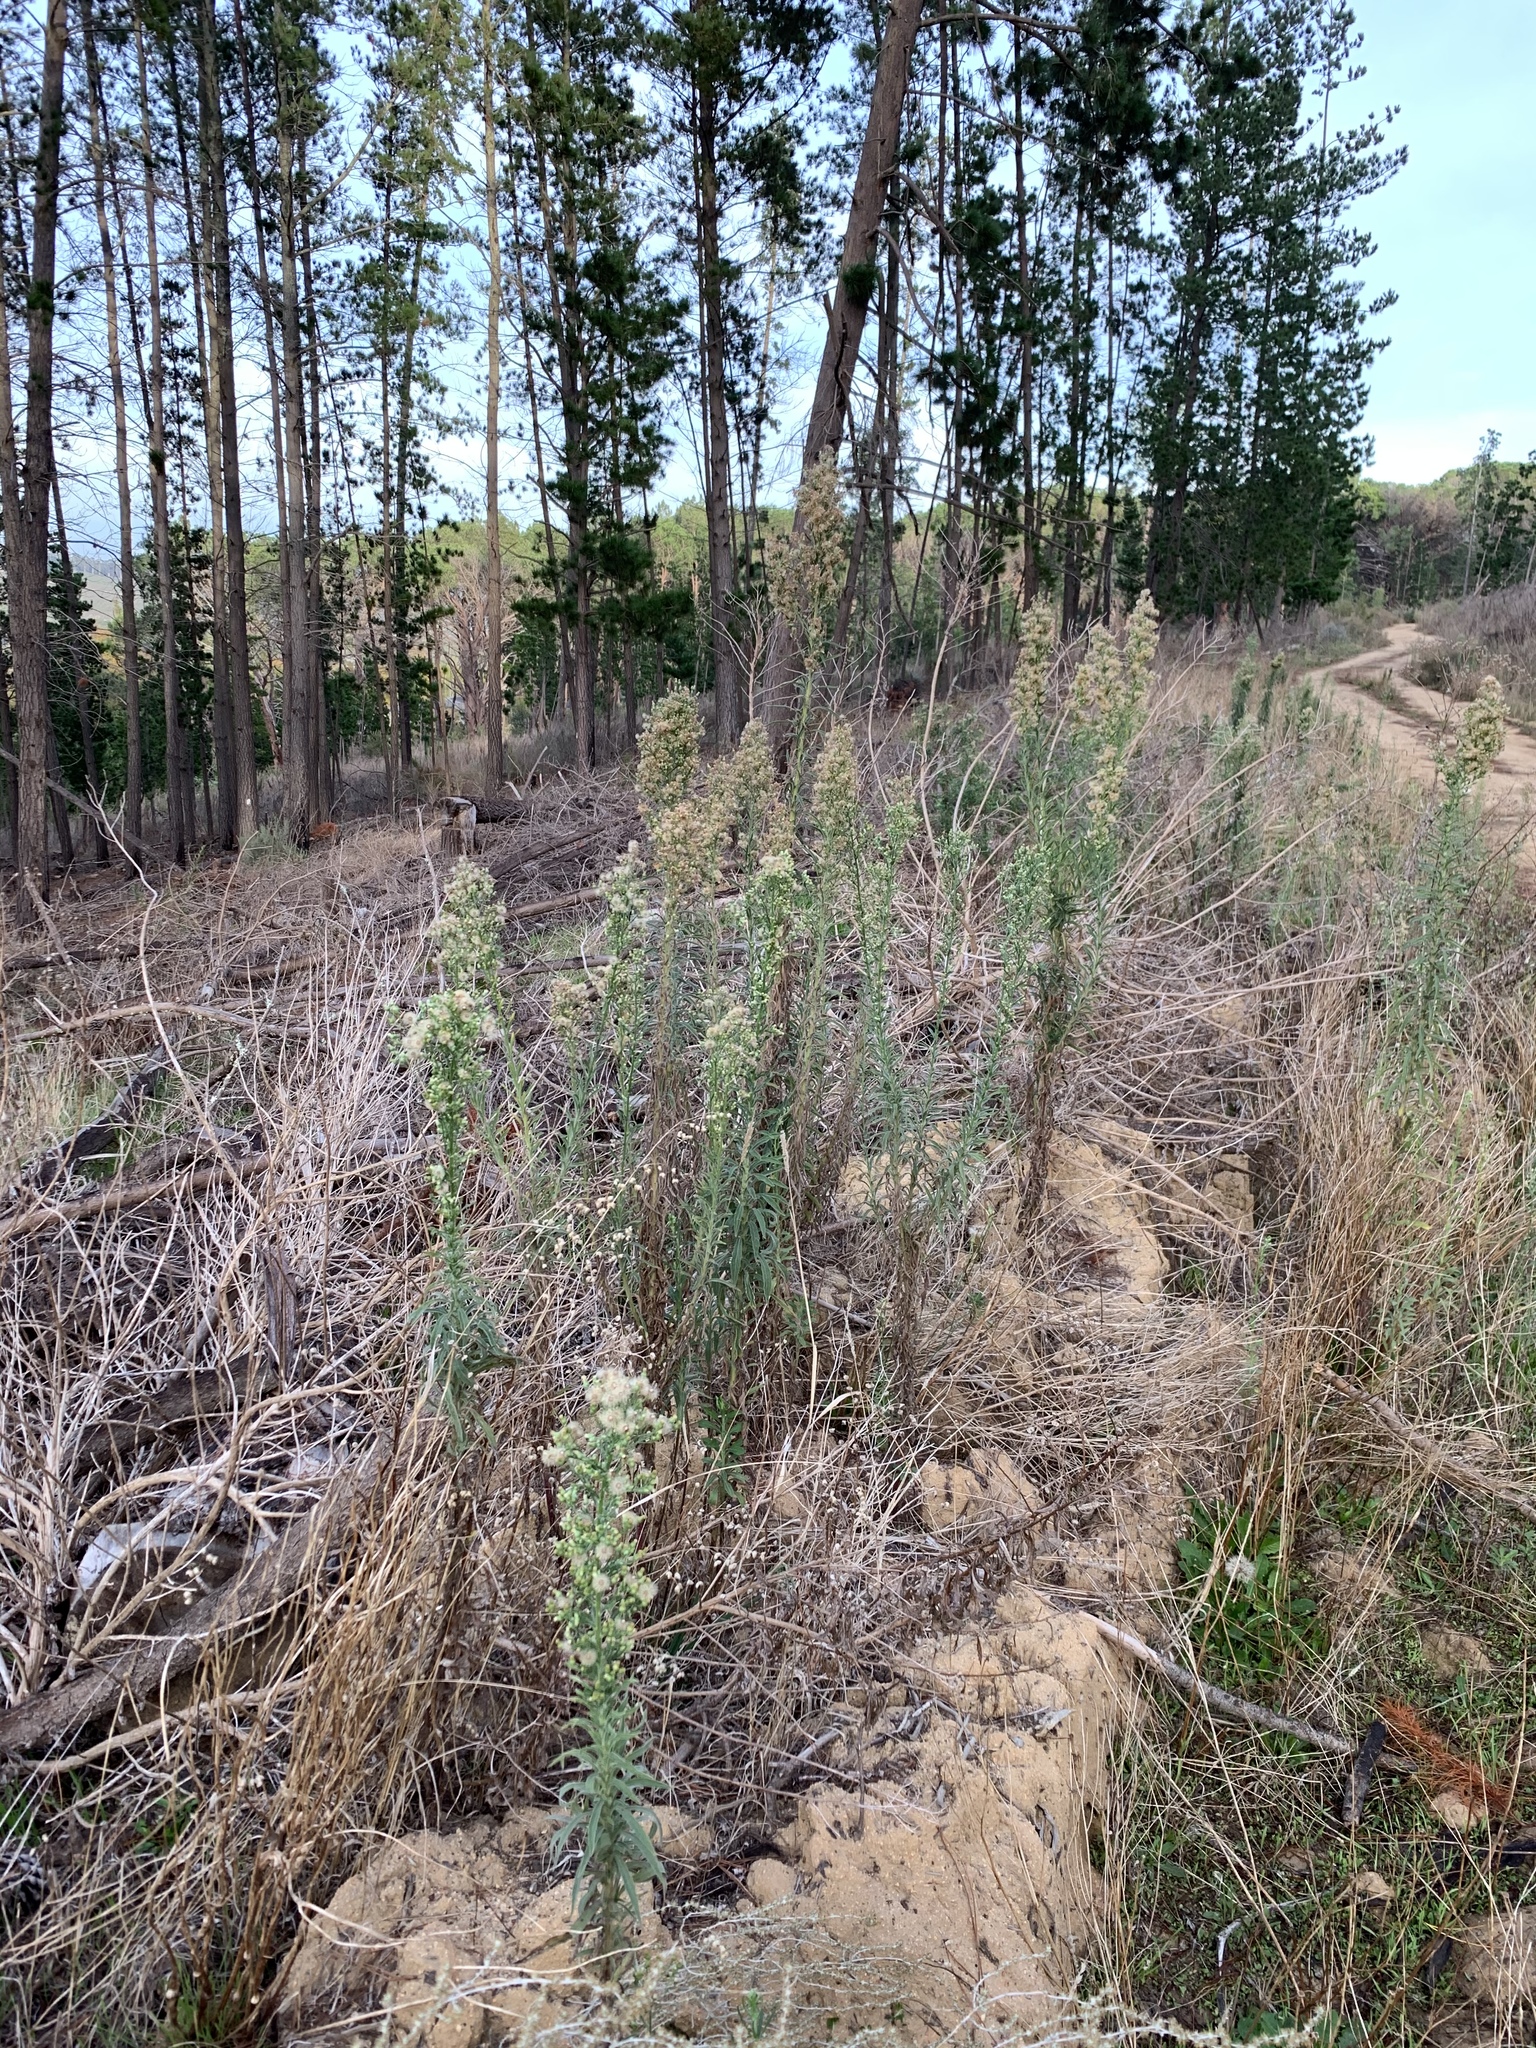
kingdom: Plantae
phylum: Tracheophyta
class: Magnoliopsida
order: Asterales
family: Asteraceae
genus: Erigeron
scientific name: Erigeron sumatrensis
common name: Daisy
